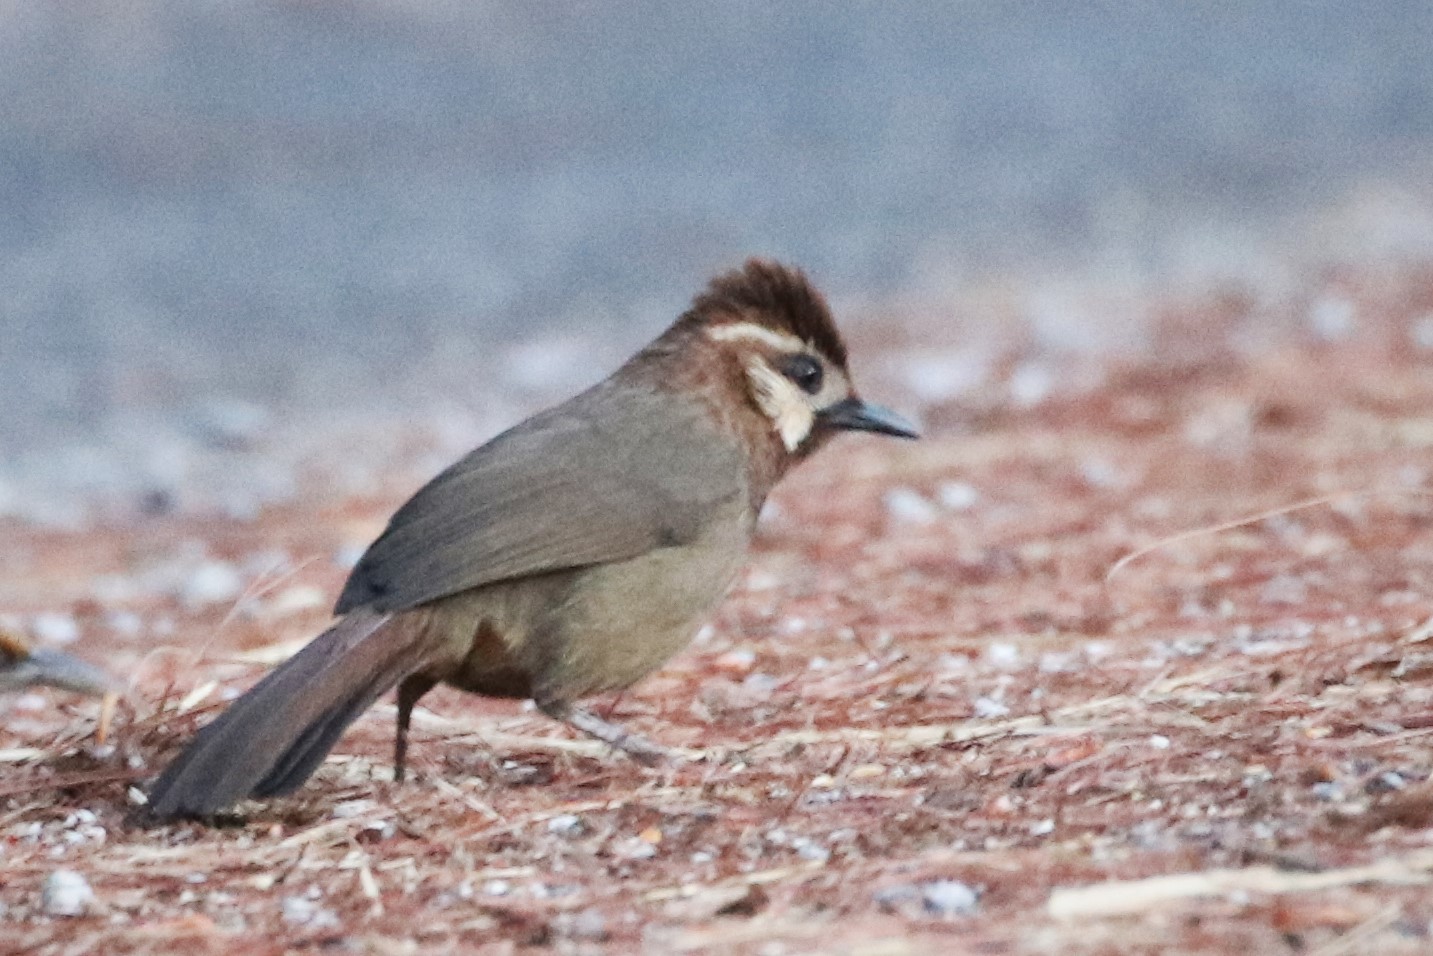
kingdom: Animalia
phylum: Chordata
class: Aves
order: Passeriformes
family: Leiothrichidae
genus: Pterorhinus
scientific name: Pterorhinus sannio
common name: White-browed laughingthrush
